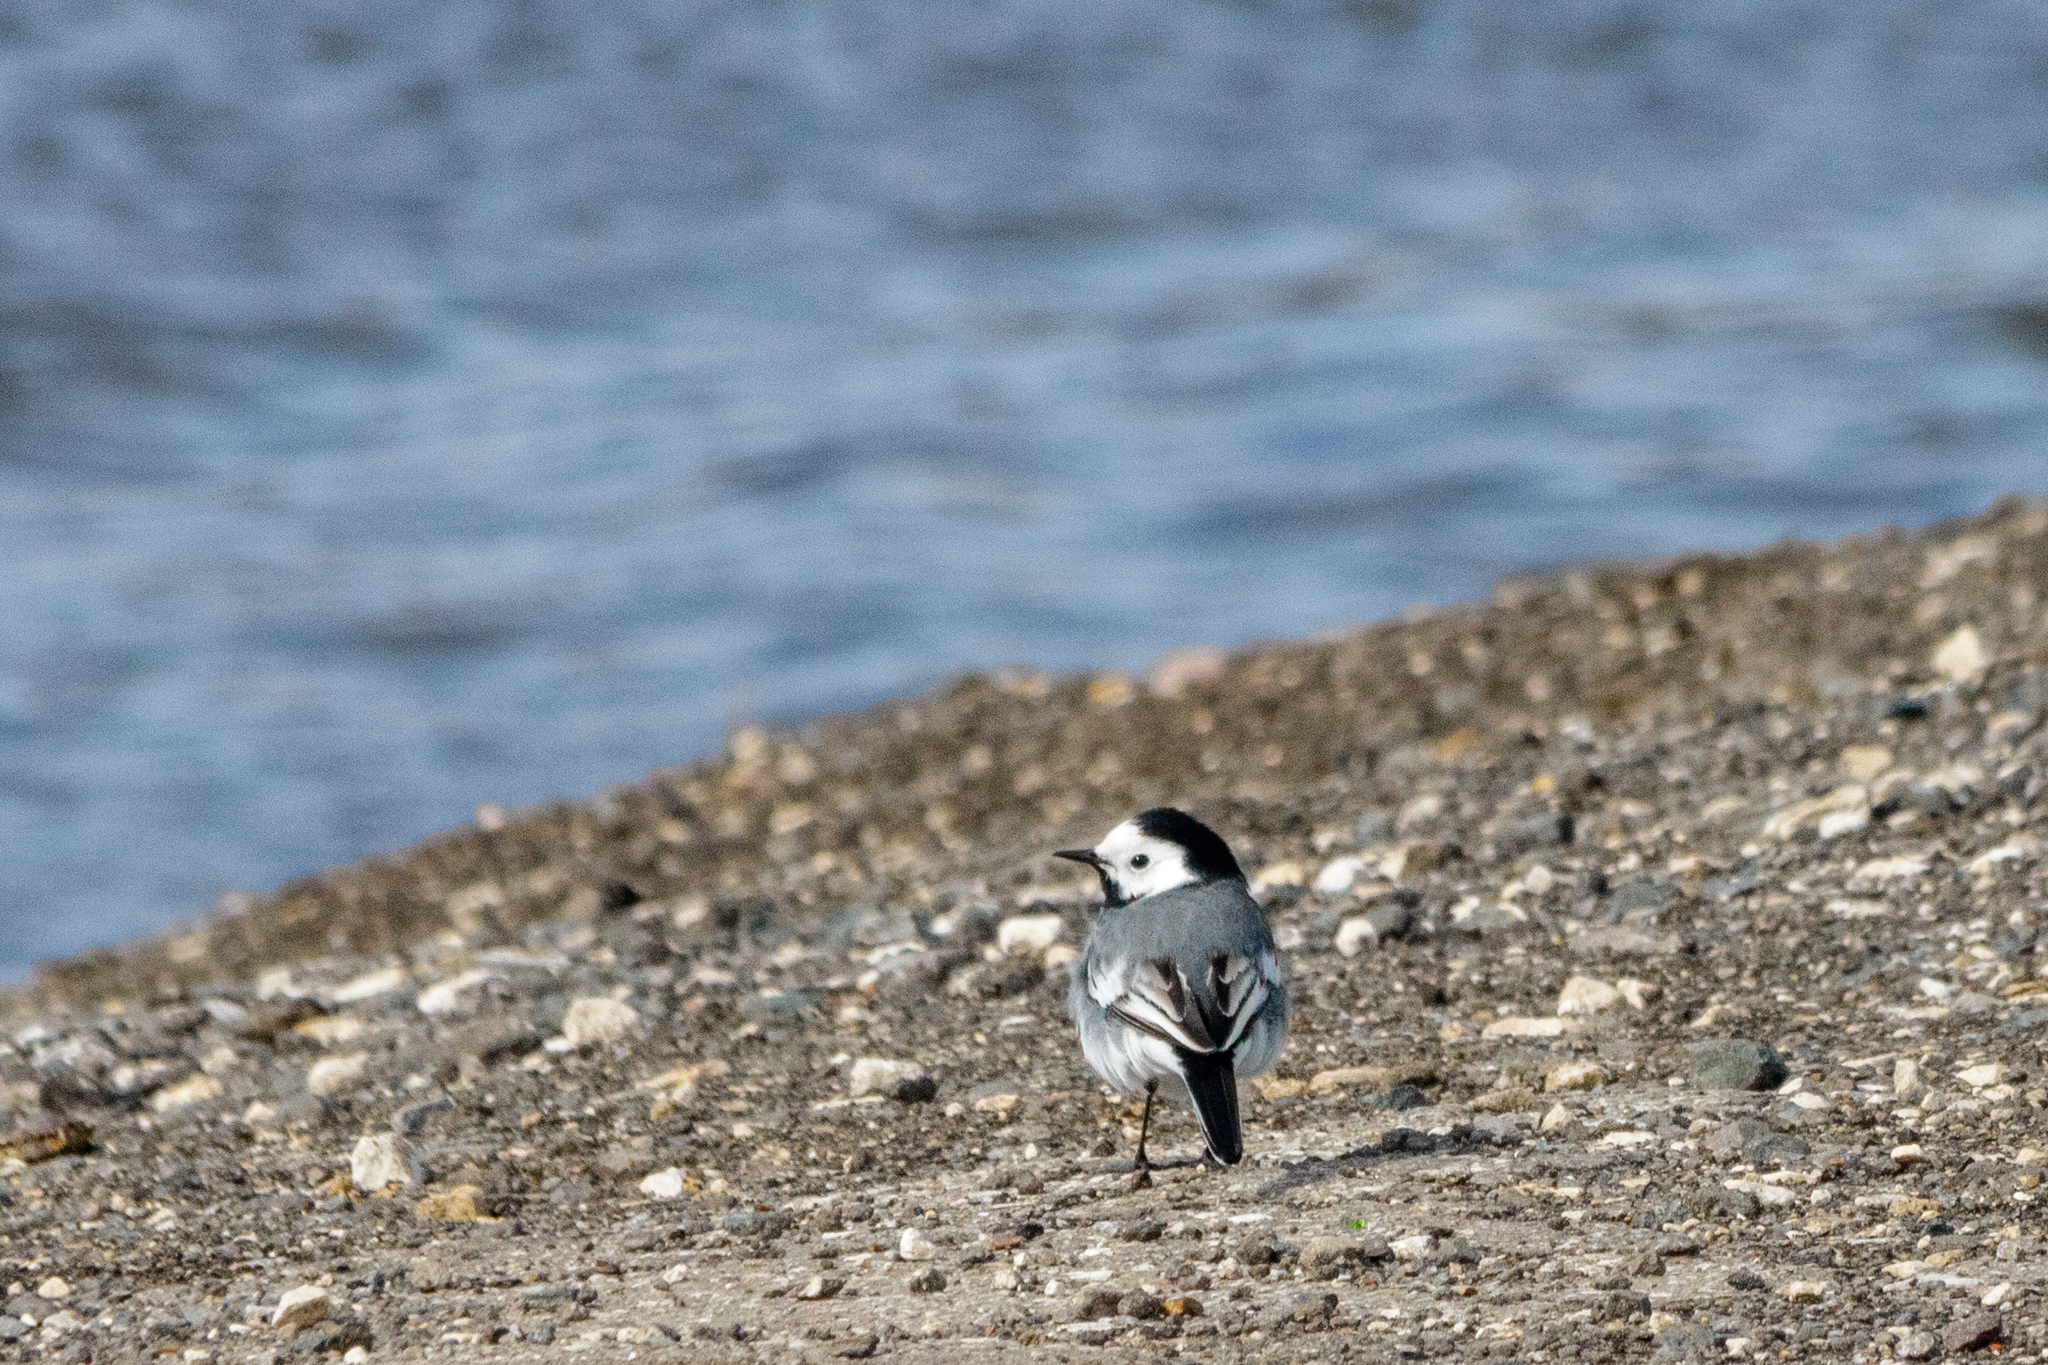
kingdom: Animalia
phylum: Chordata
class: Aves
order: Passeriformes
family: Motacillidae
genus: Motacilla
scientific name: Motacilla alba
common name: White wagtail
